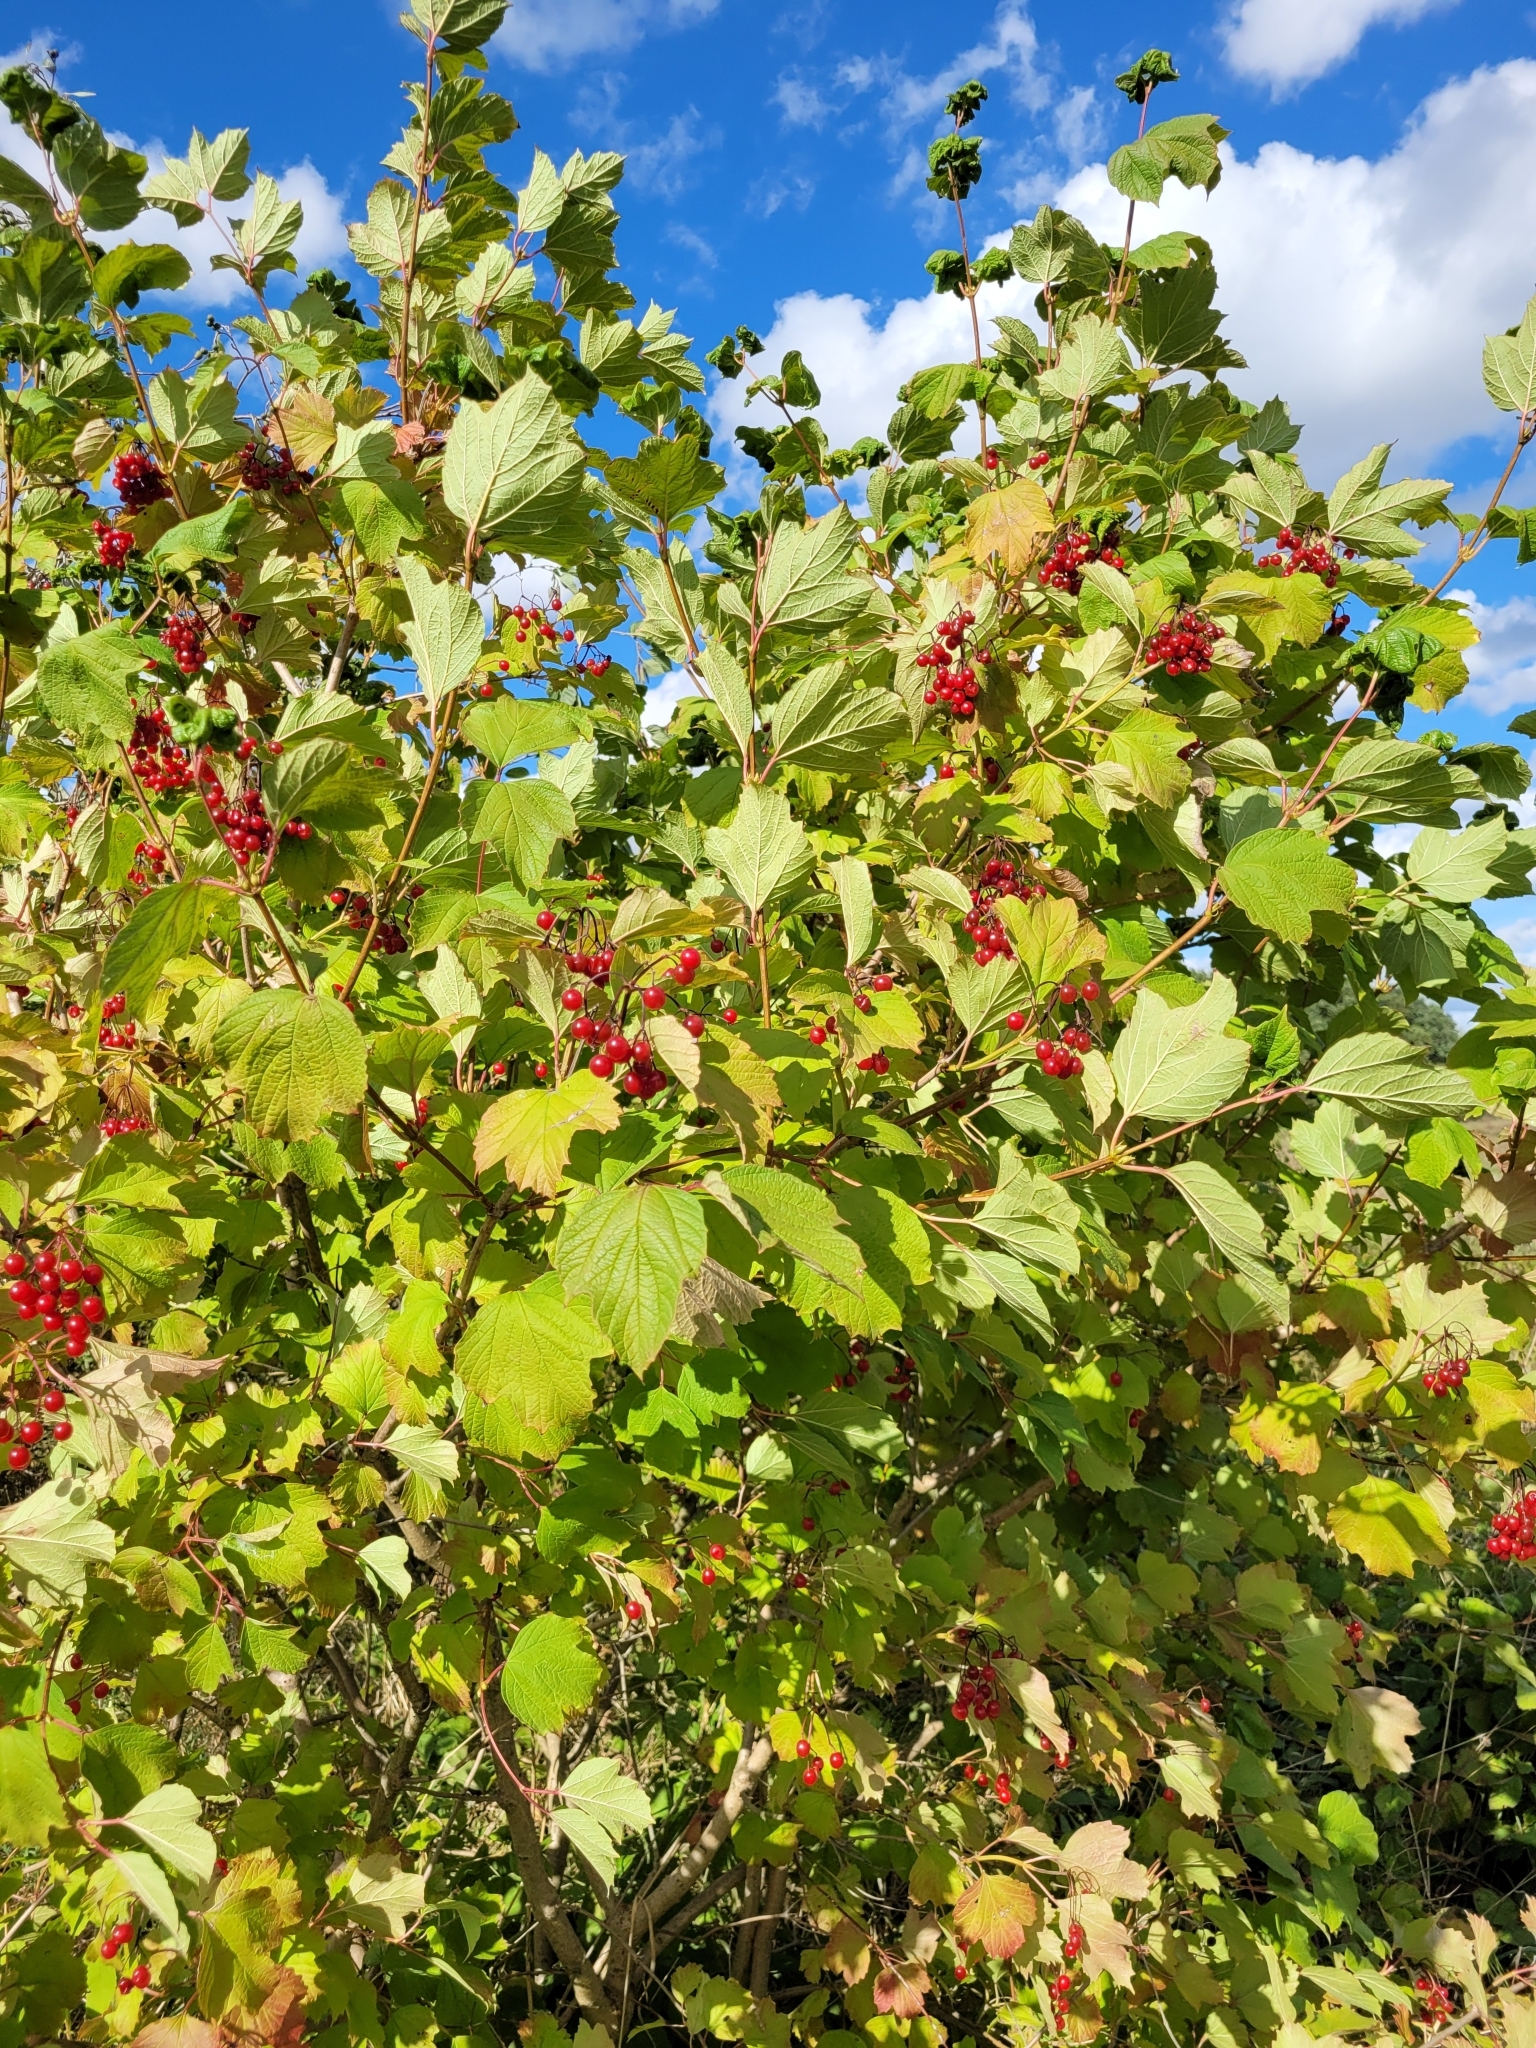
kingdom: Plantae
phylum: Tracheophyta
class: Magnoliopsida
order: Dipsacales
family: Viburnaceae
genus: Viburnum
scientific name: Viburnum opulus
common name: Guelder-rose
